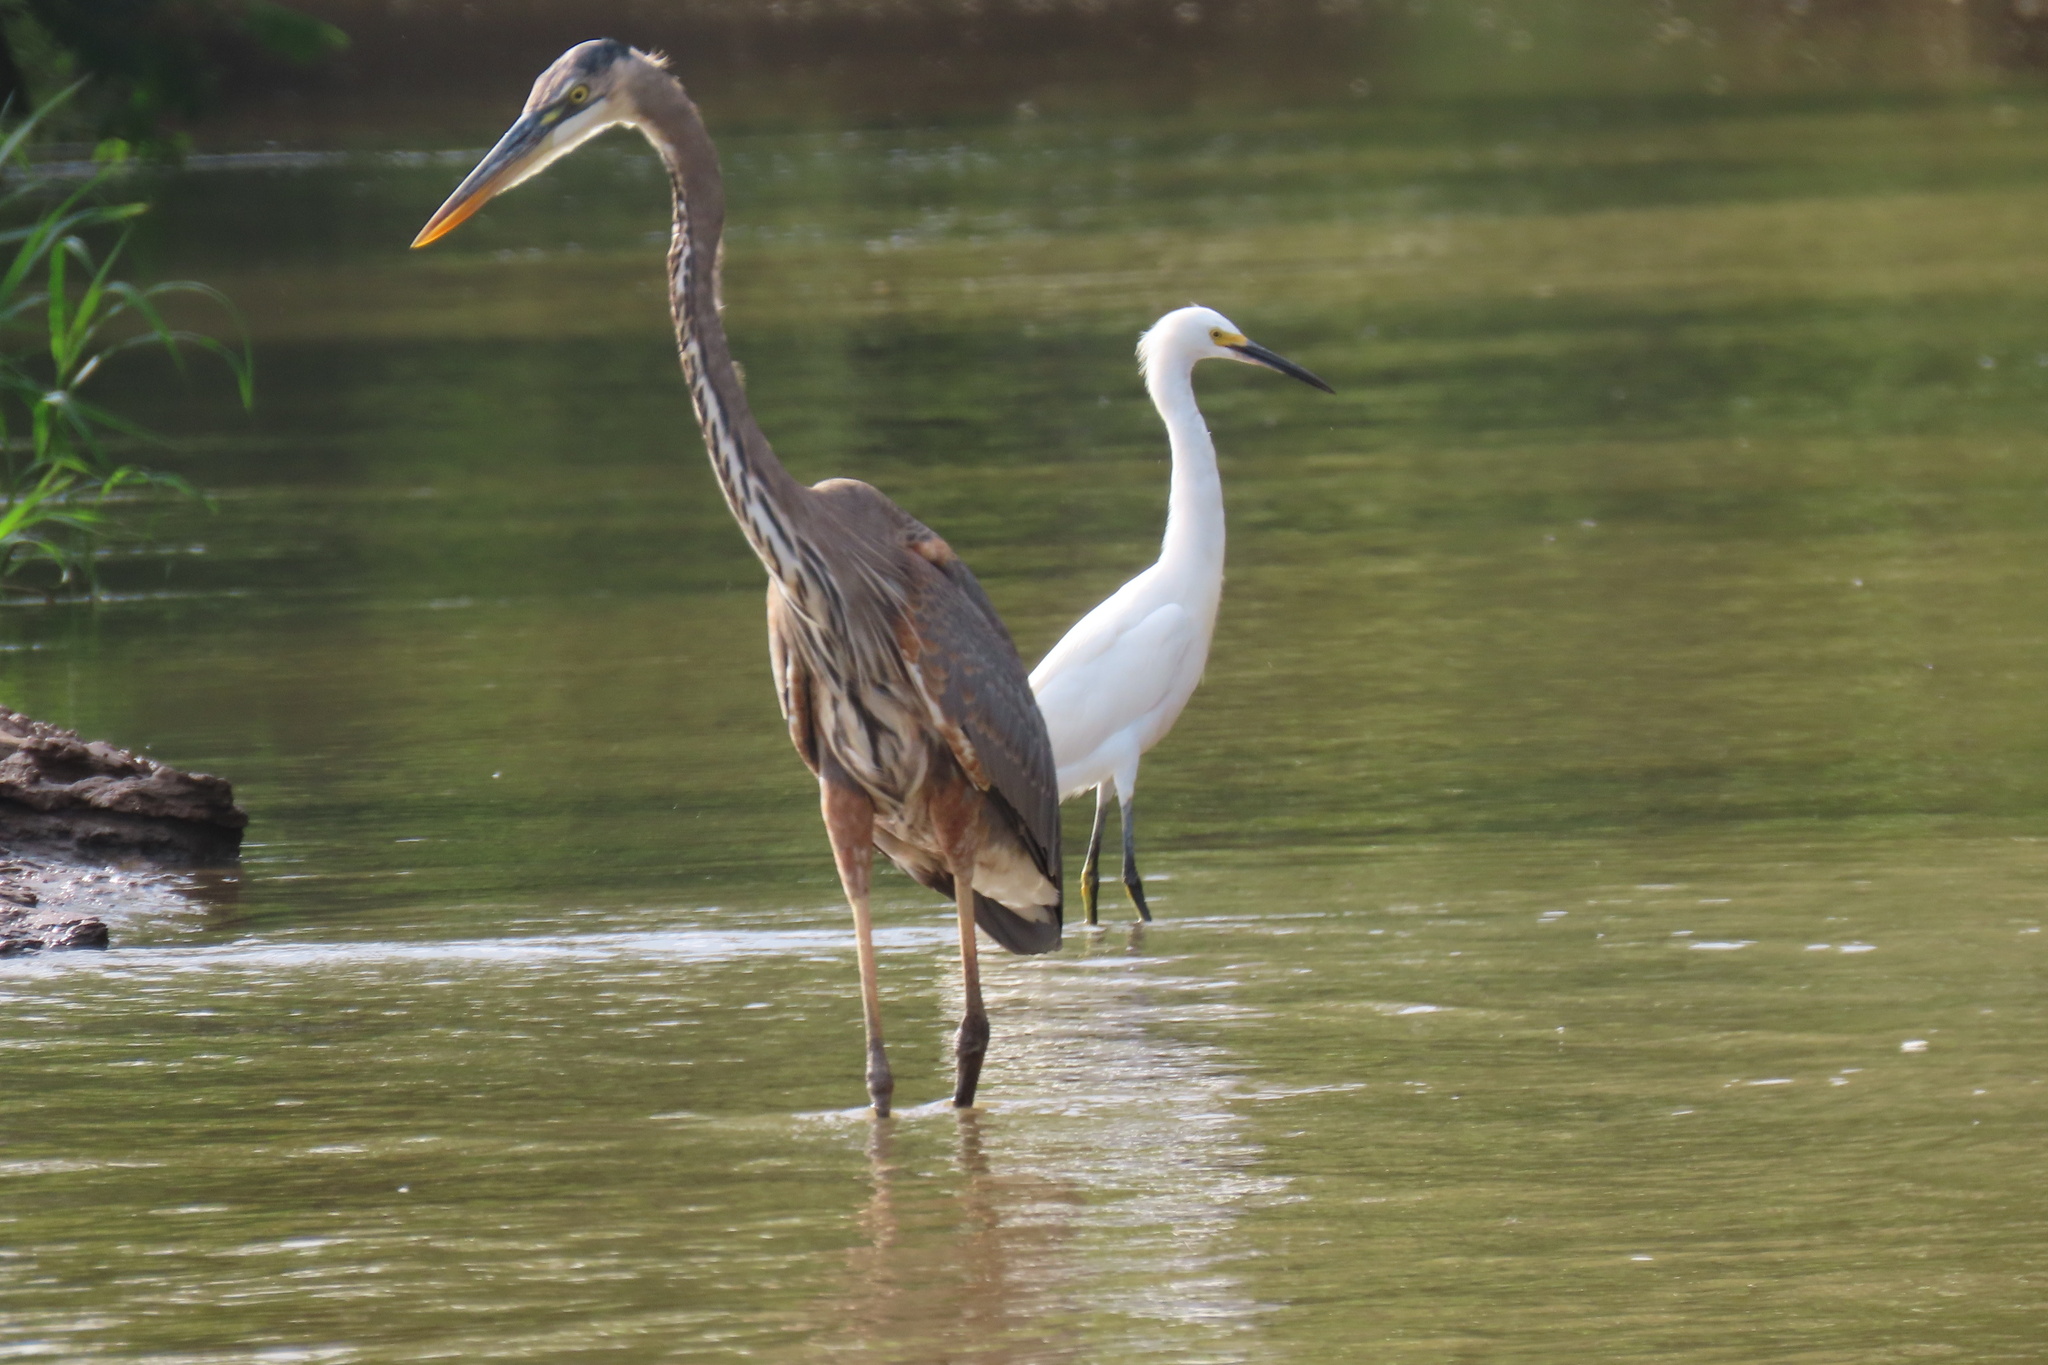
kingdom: Animalia
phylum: Chordata
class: Aves
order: Pelecaniformes
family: Ardeidae
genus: Ardea
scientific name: Ardea herodias
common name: Great blue heron
